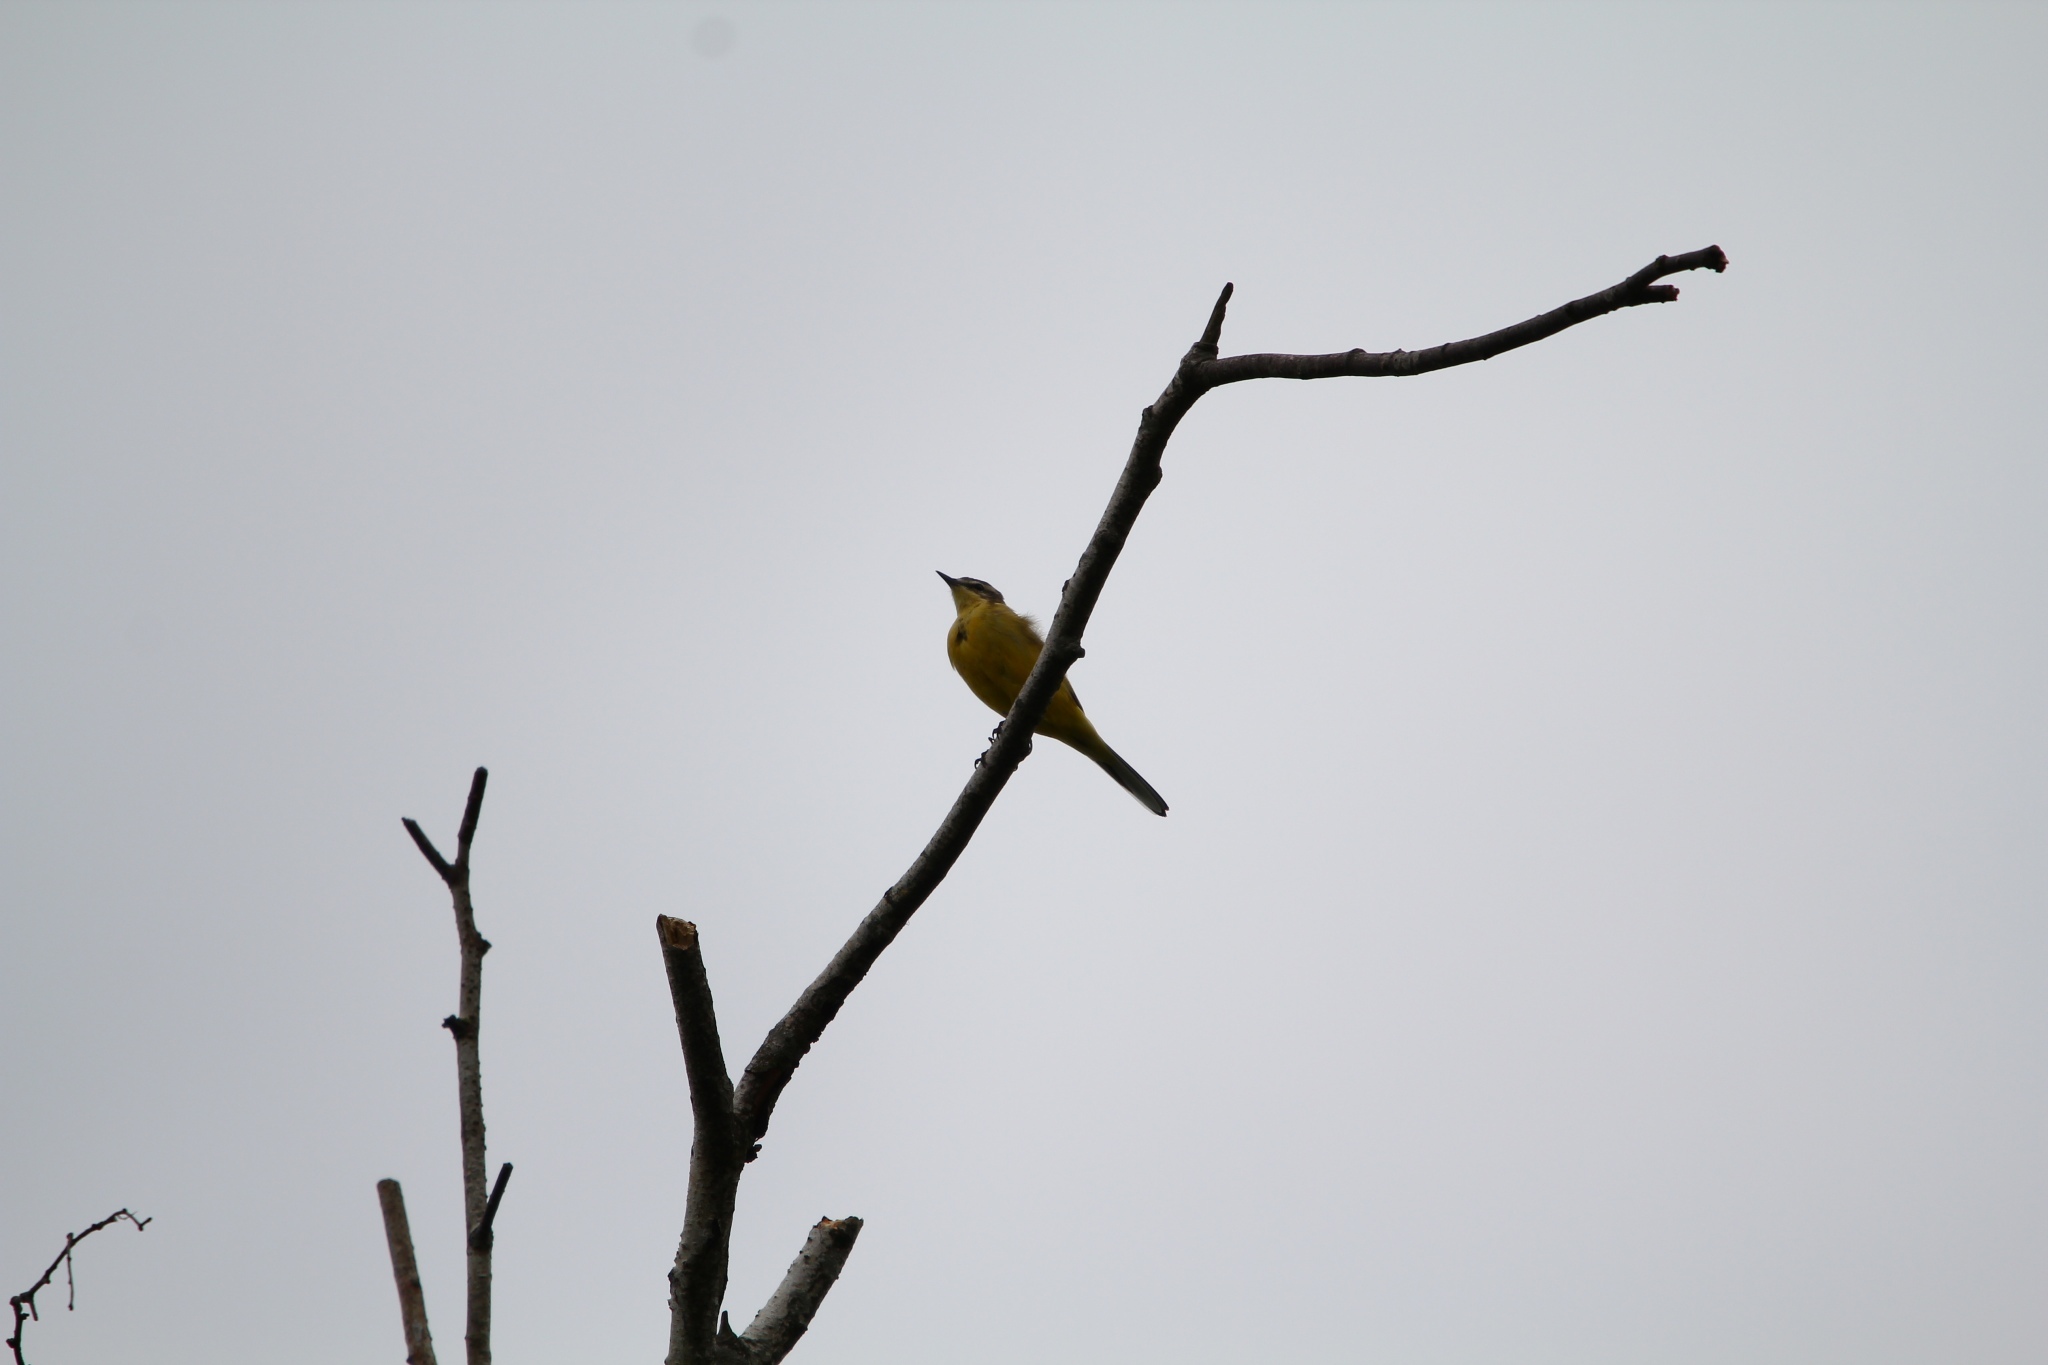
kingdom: Animalia
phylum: Chordata
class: Aves
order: Passeriformes
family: Motacillidae
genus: Motacilla
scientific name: Motacilla flava
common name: Western yellow wagtail
